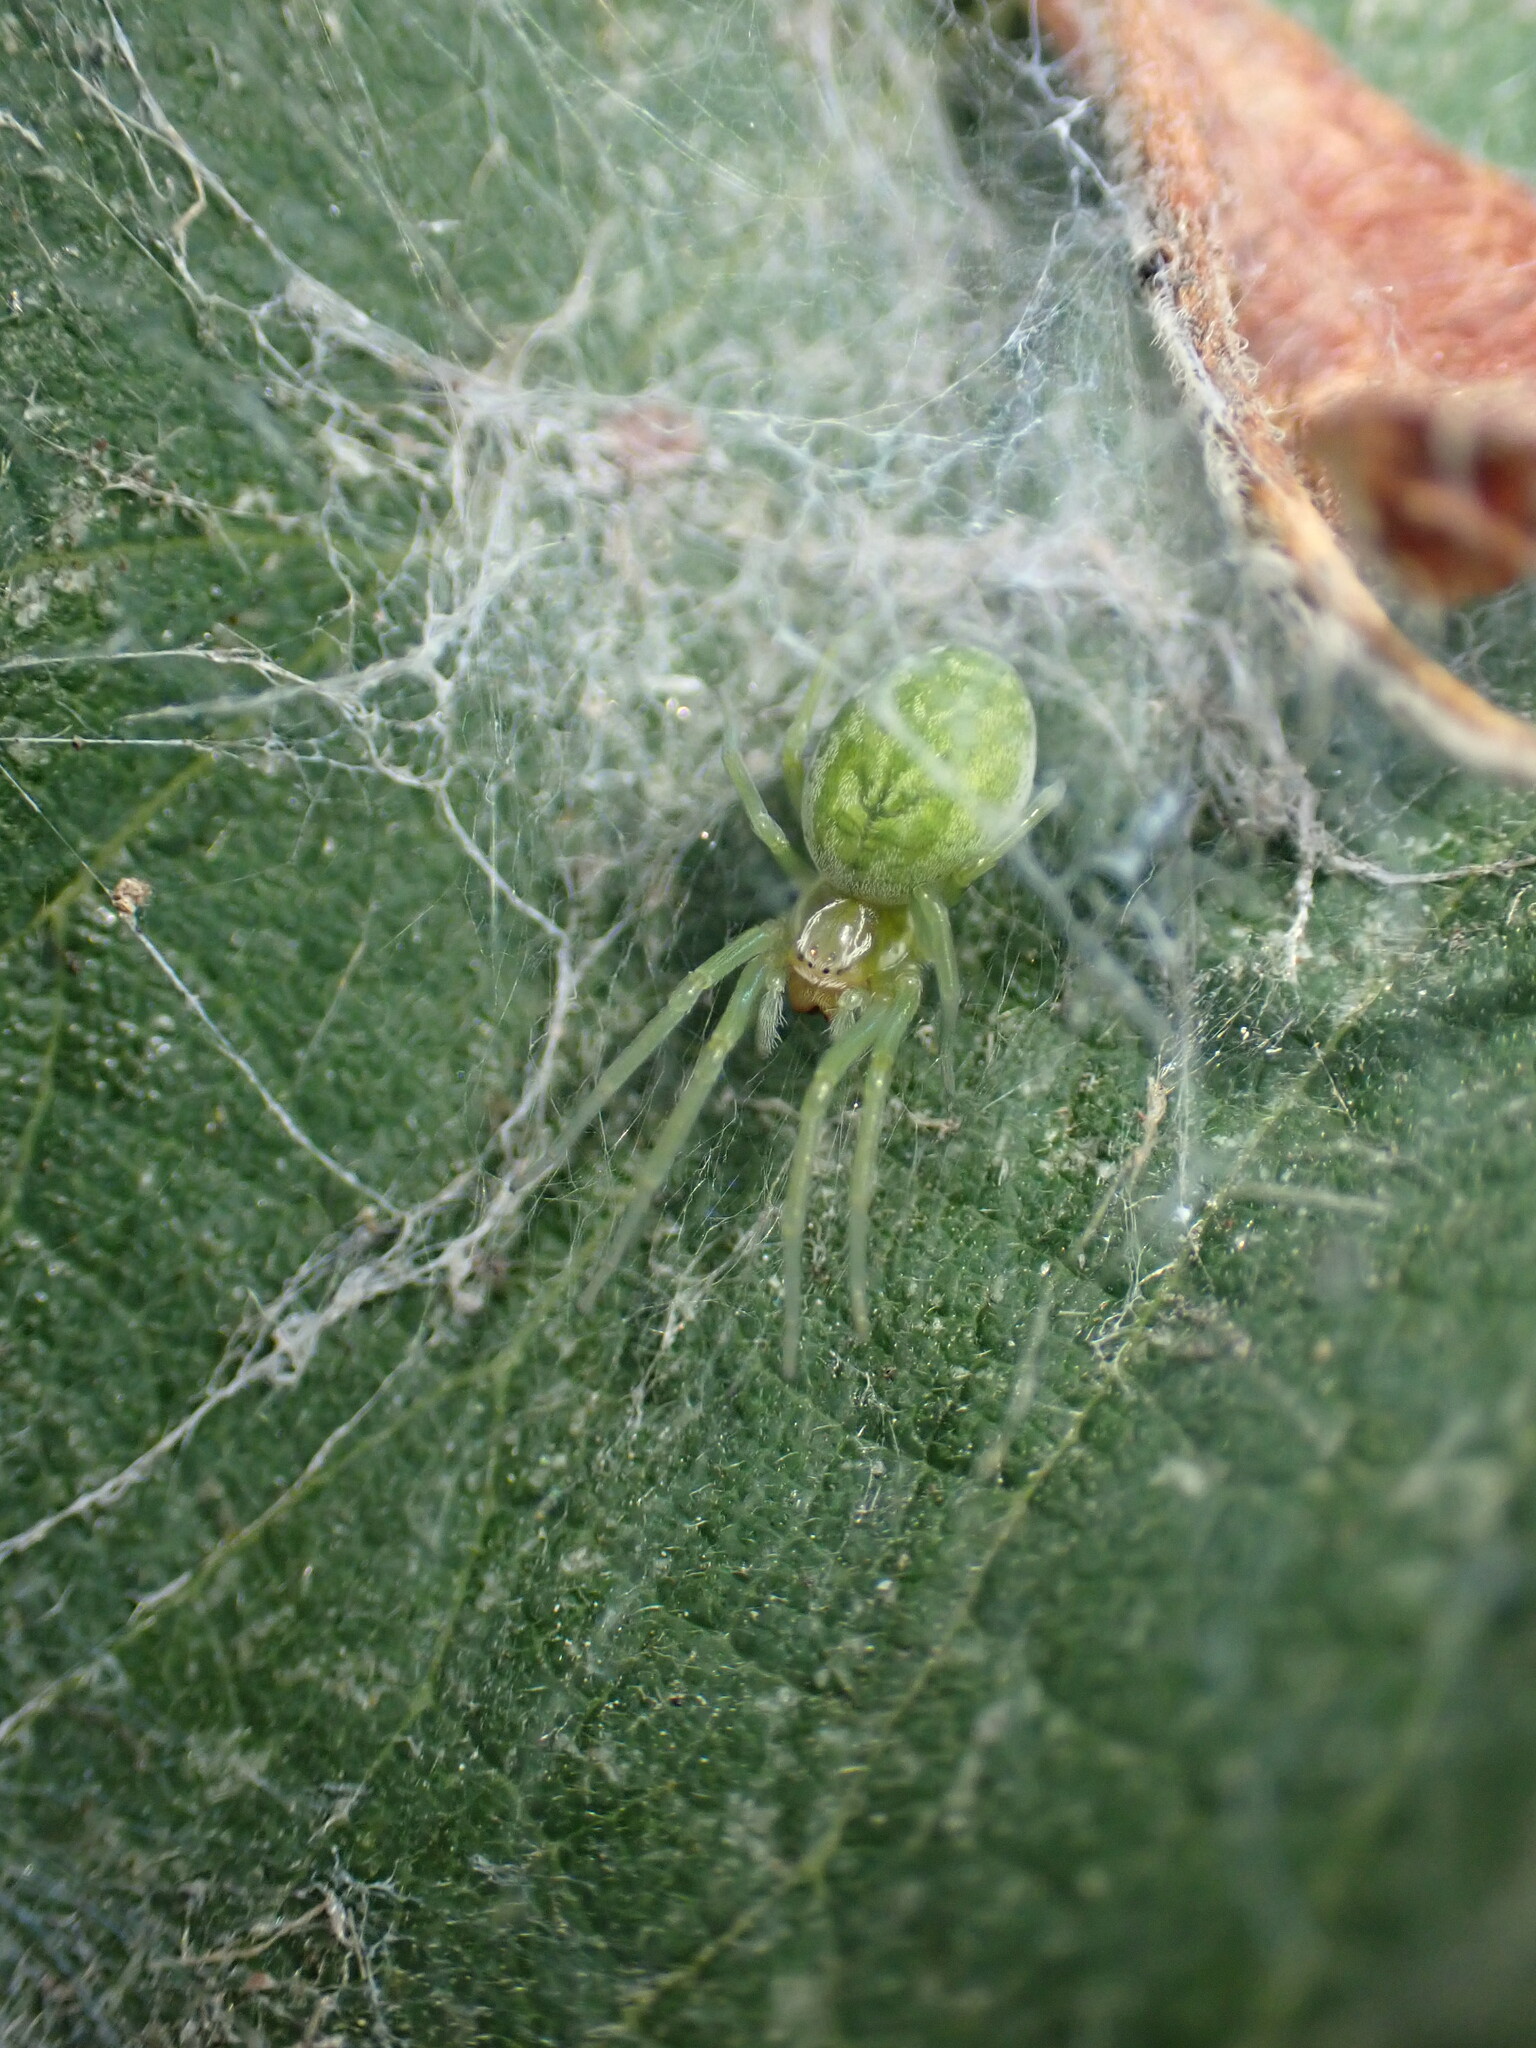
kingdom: Animalia
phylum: Arthropoda
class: Arachnida
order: Araneae
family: Dictynidae
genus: Nigma
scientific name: Nigma walckenaeri
